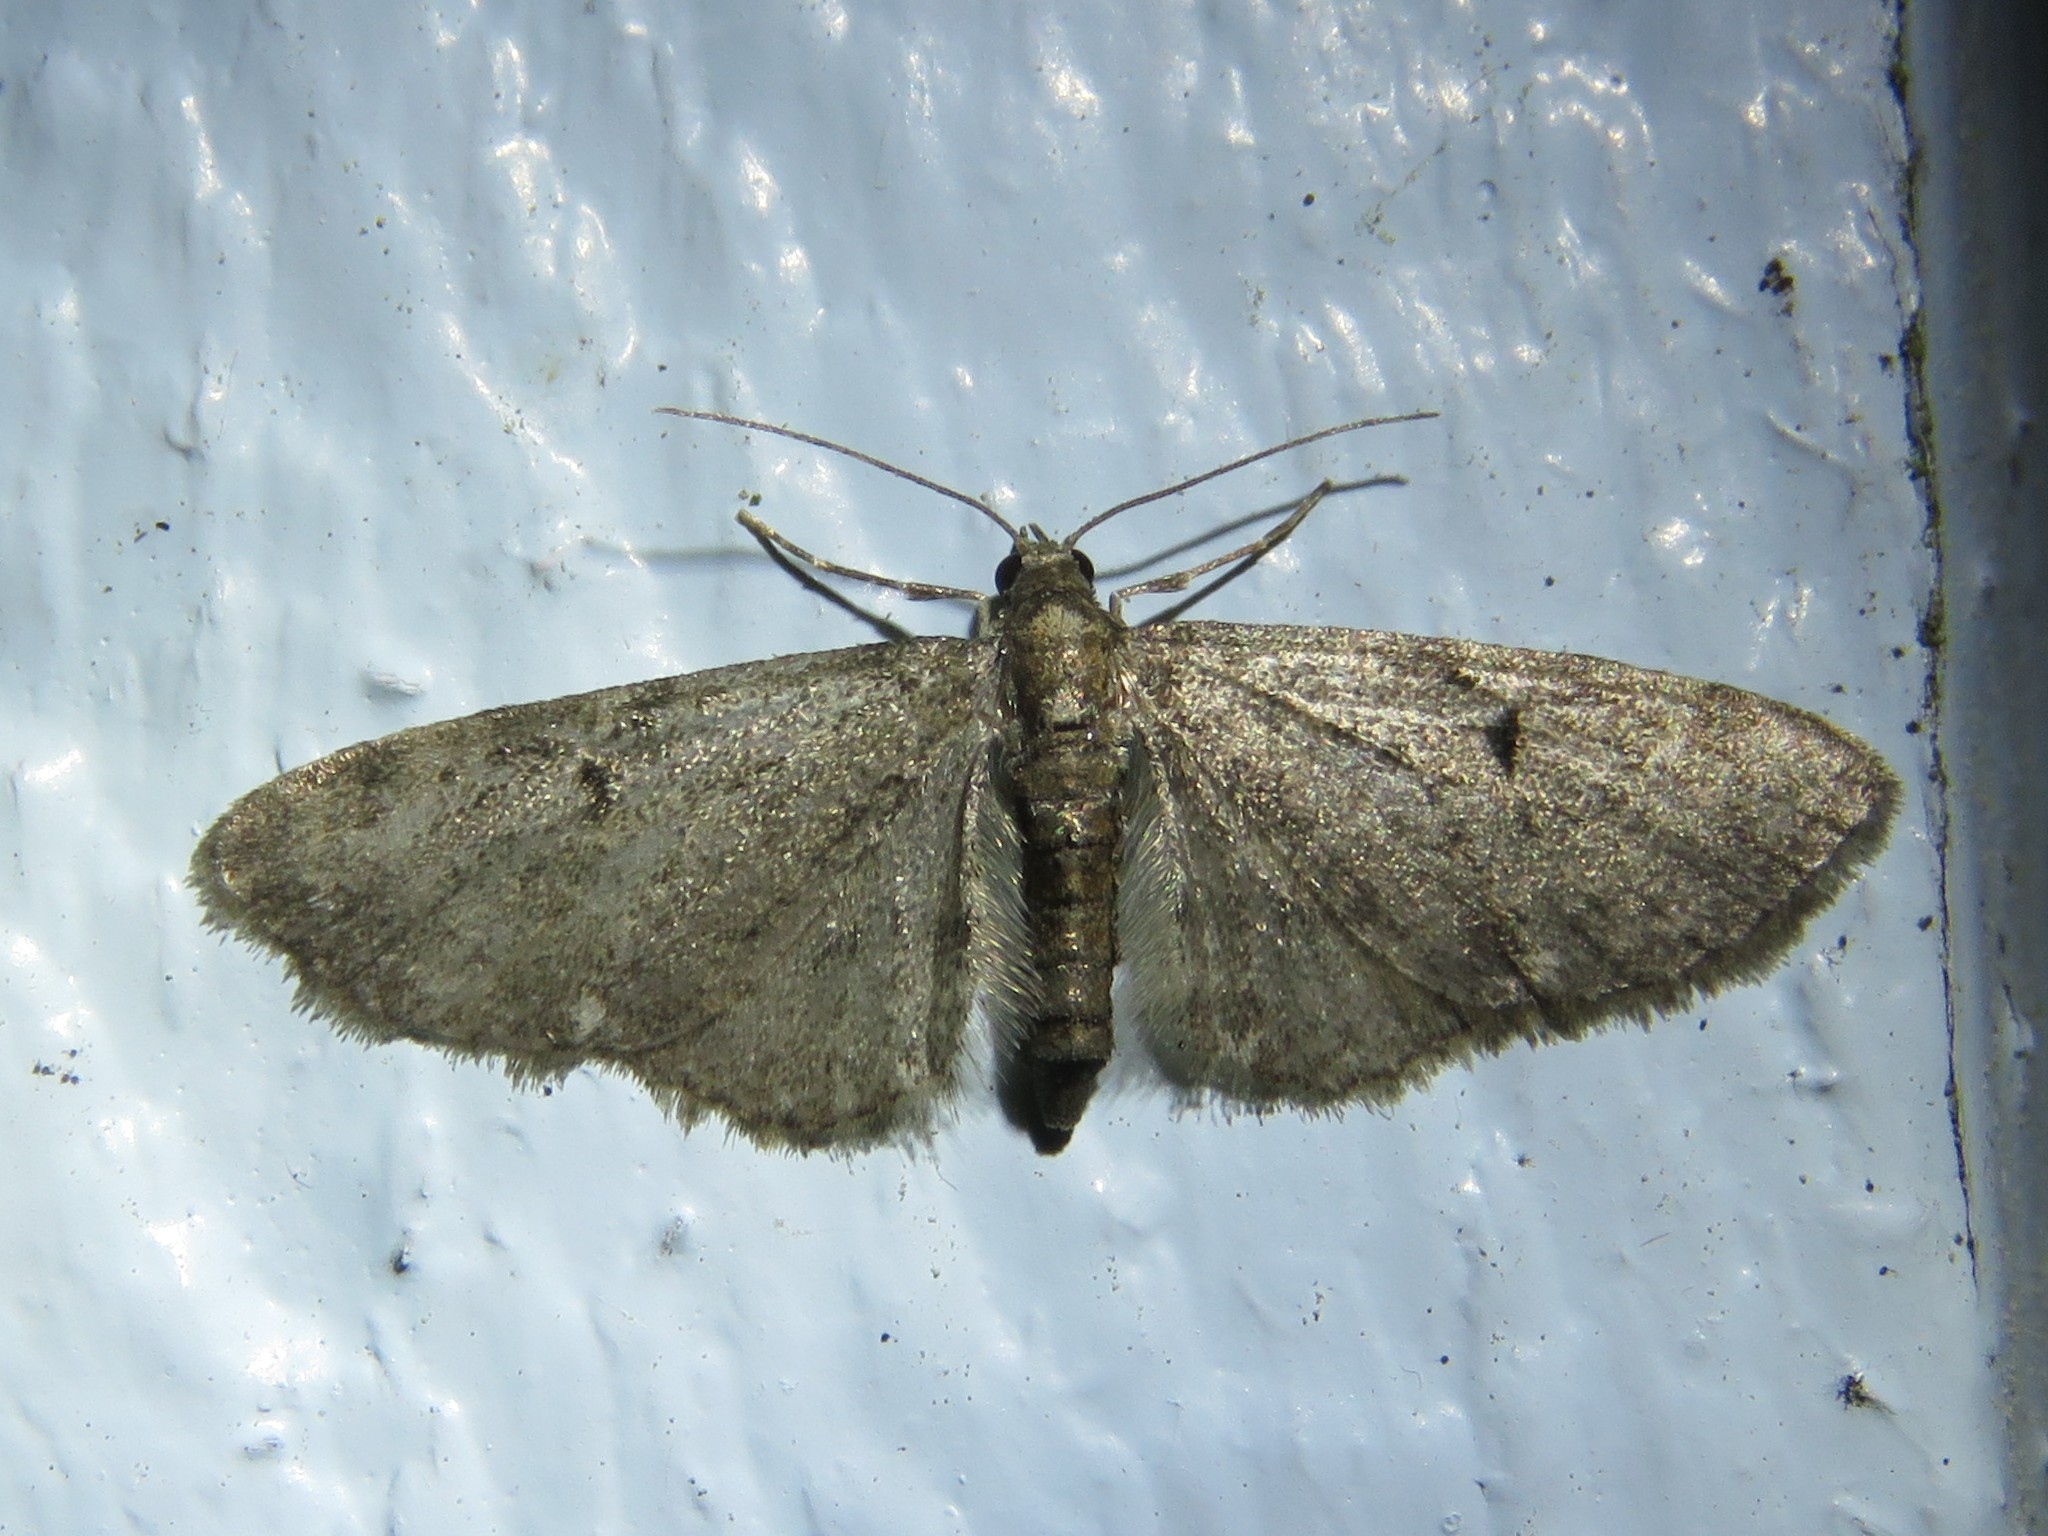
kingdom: Animalia
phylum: Arthropoda
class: Insecta
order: Lepidoptera
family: Geometridae
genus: Eupithecia
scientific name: Eupithecia tripunctaria
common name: White-spotted pug
